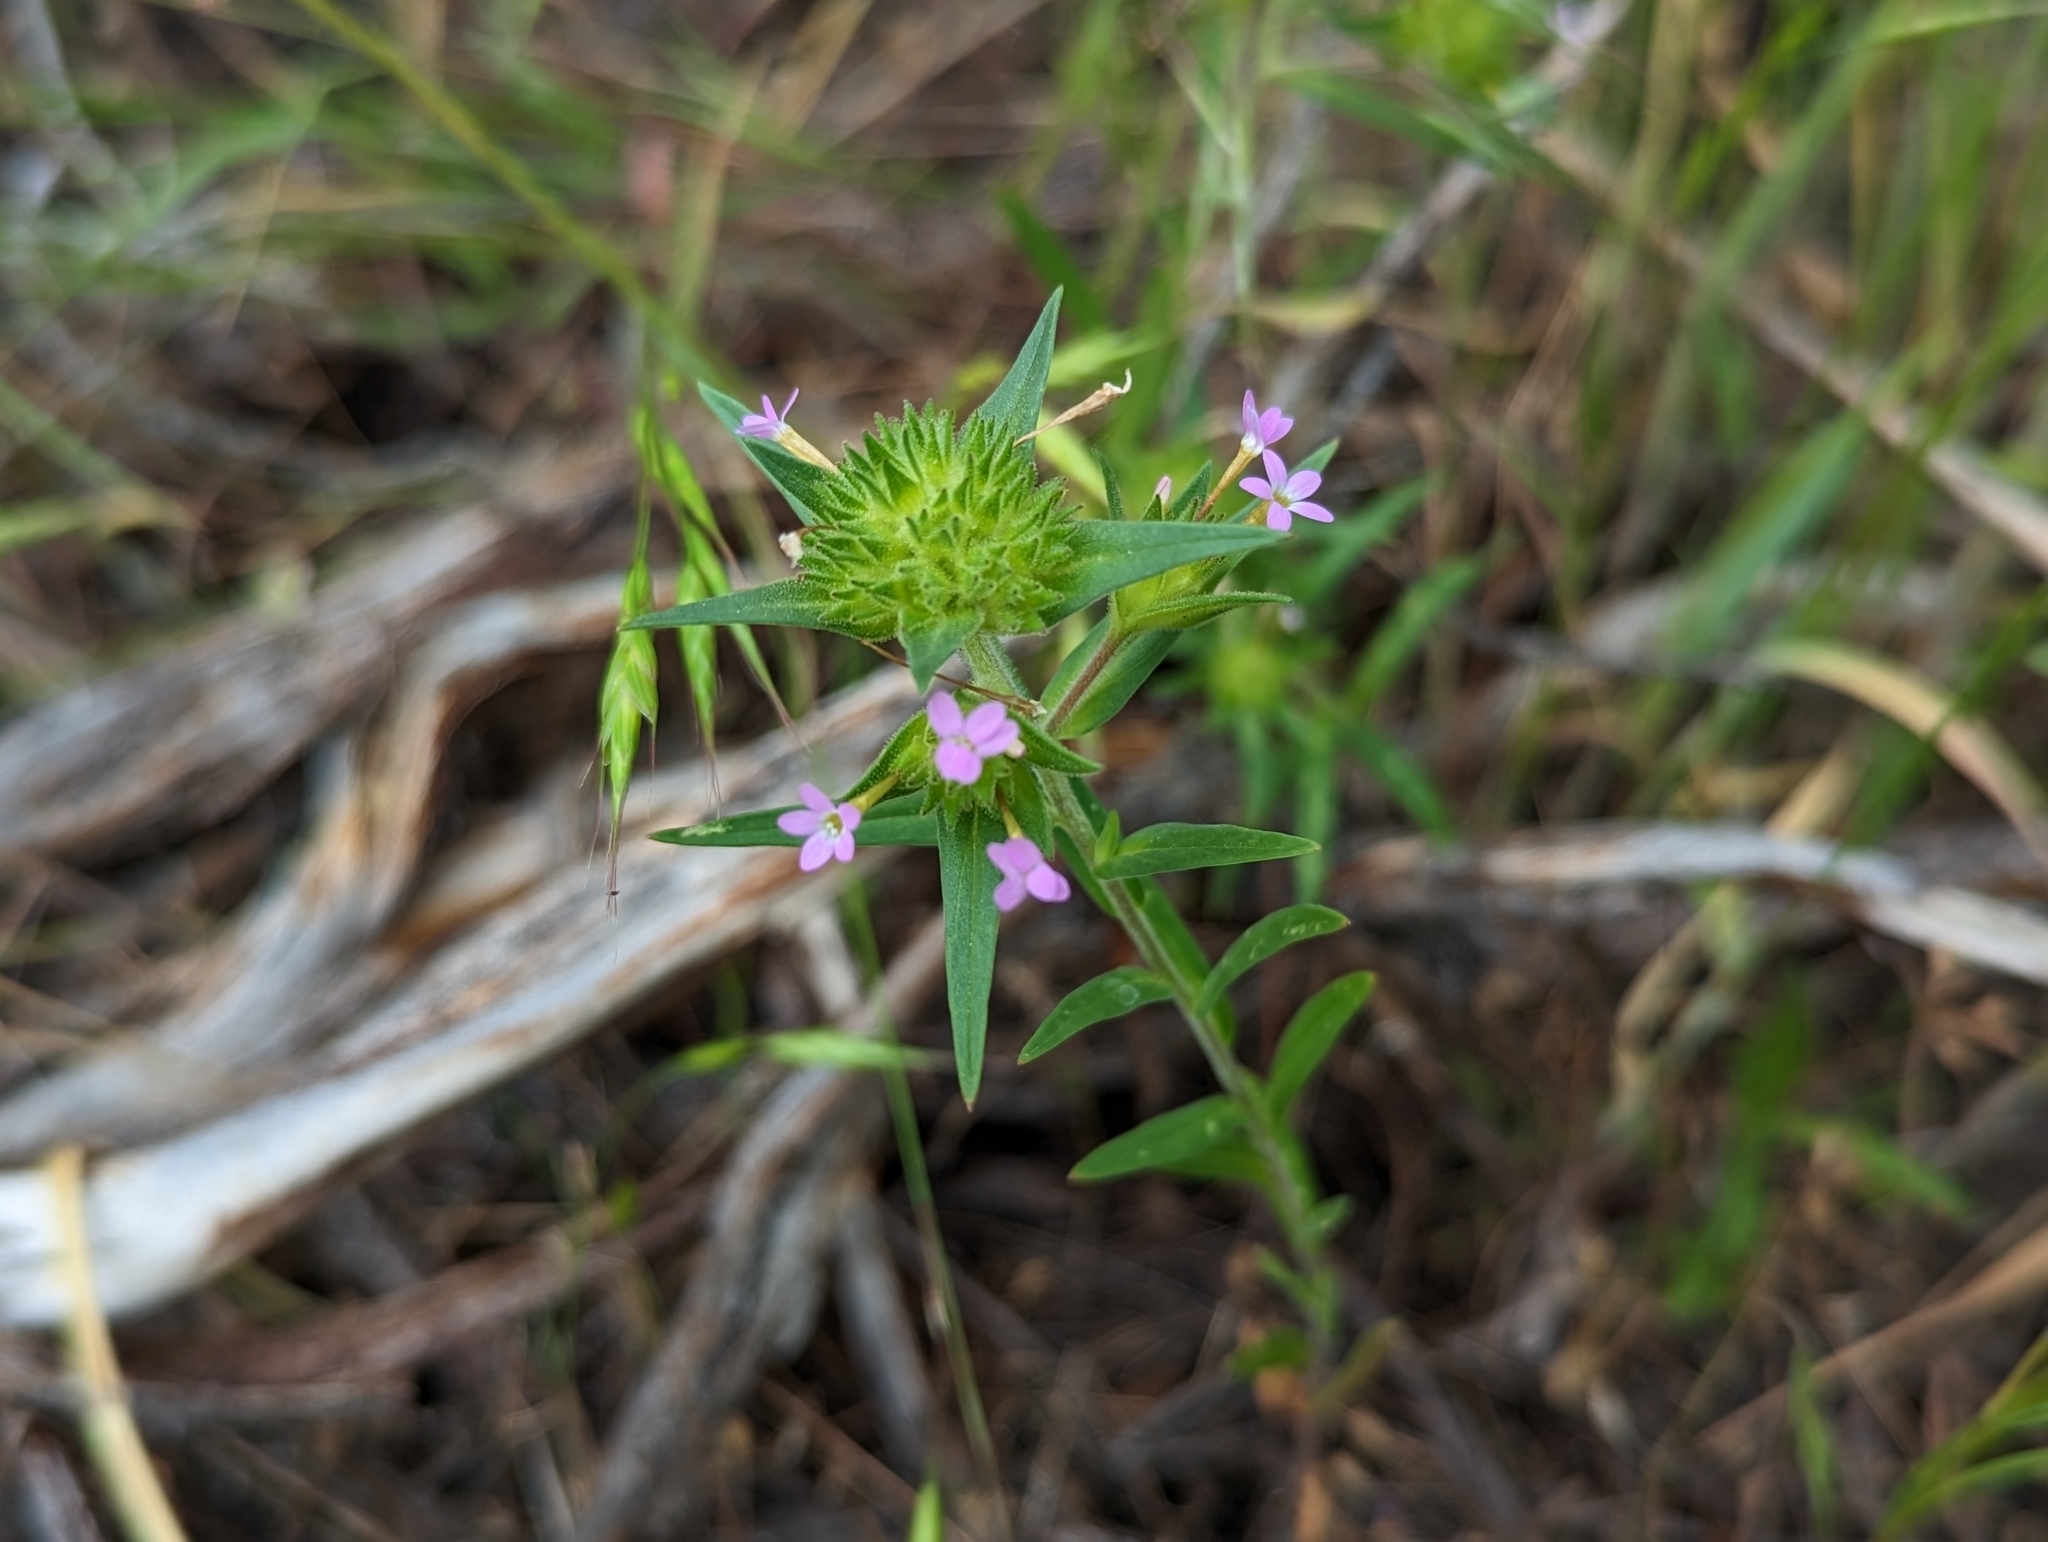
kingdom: Plantae
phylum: Tracheophyta
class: Magnoliopsida
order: Ericales
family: Polemoniaceae
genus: Collomia
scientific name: Collomia linearis
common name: Tiny trumpet
